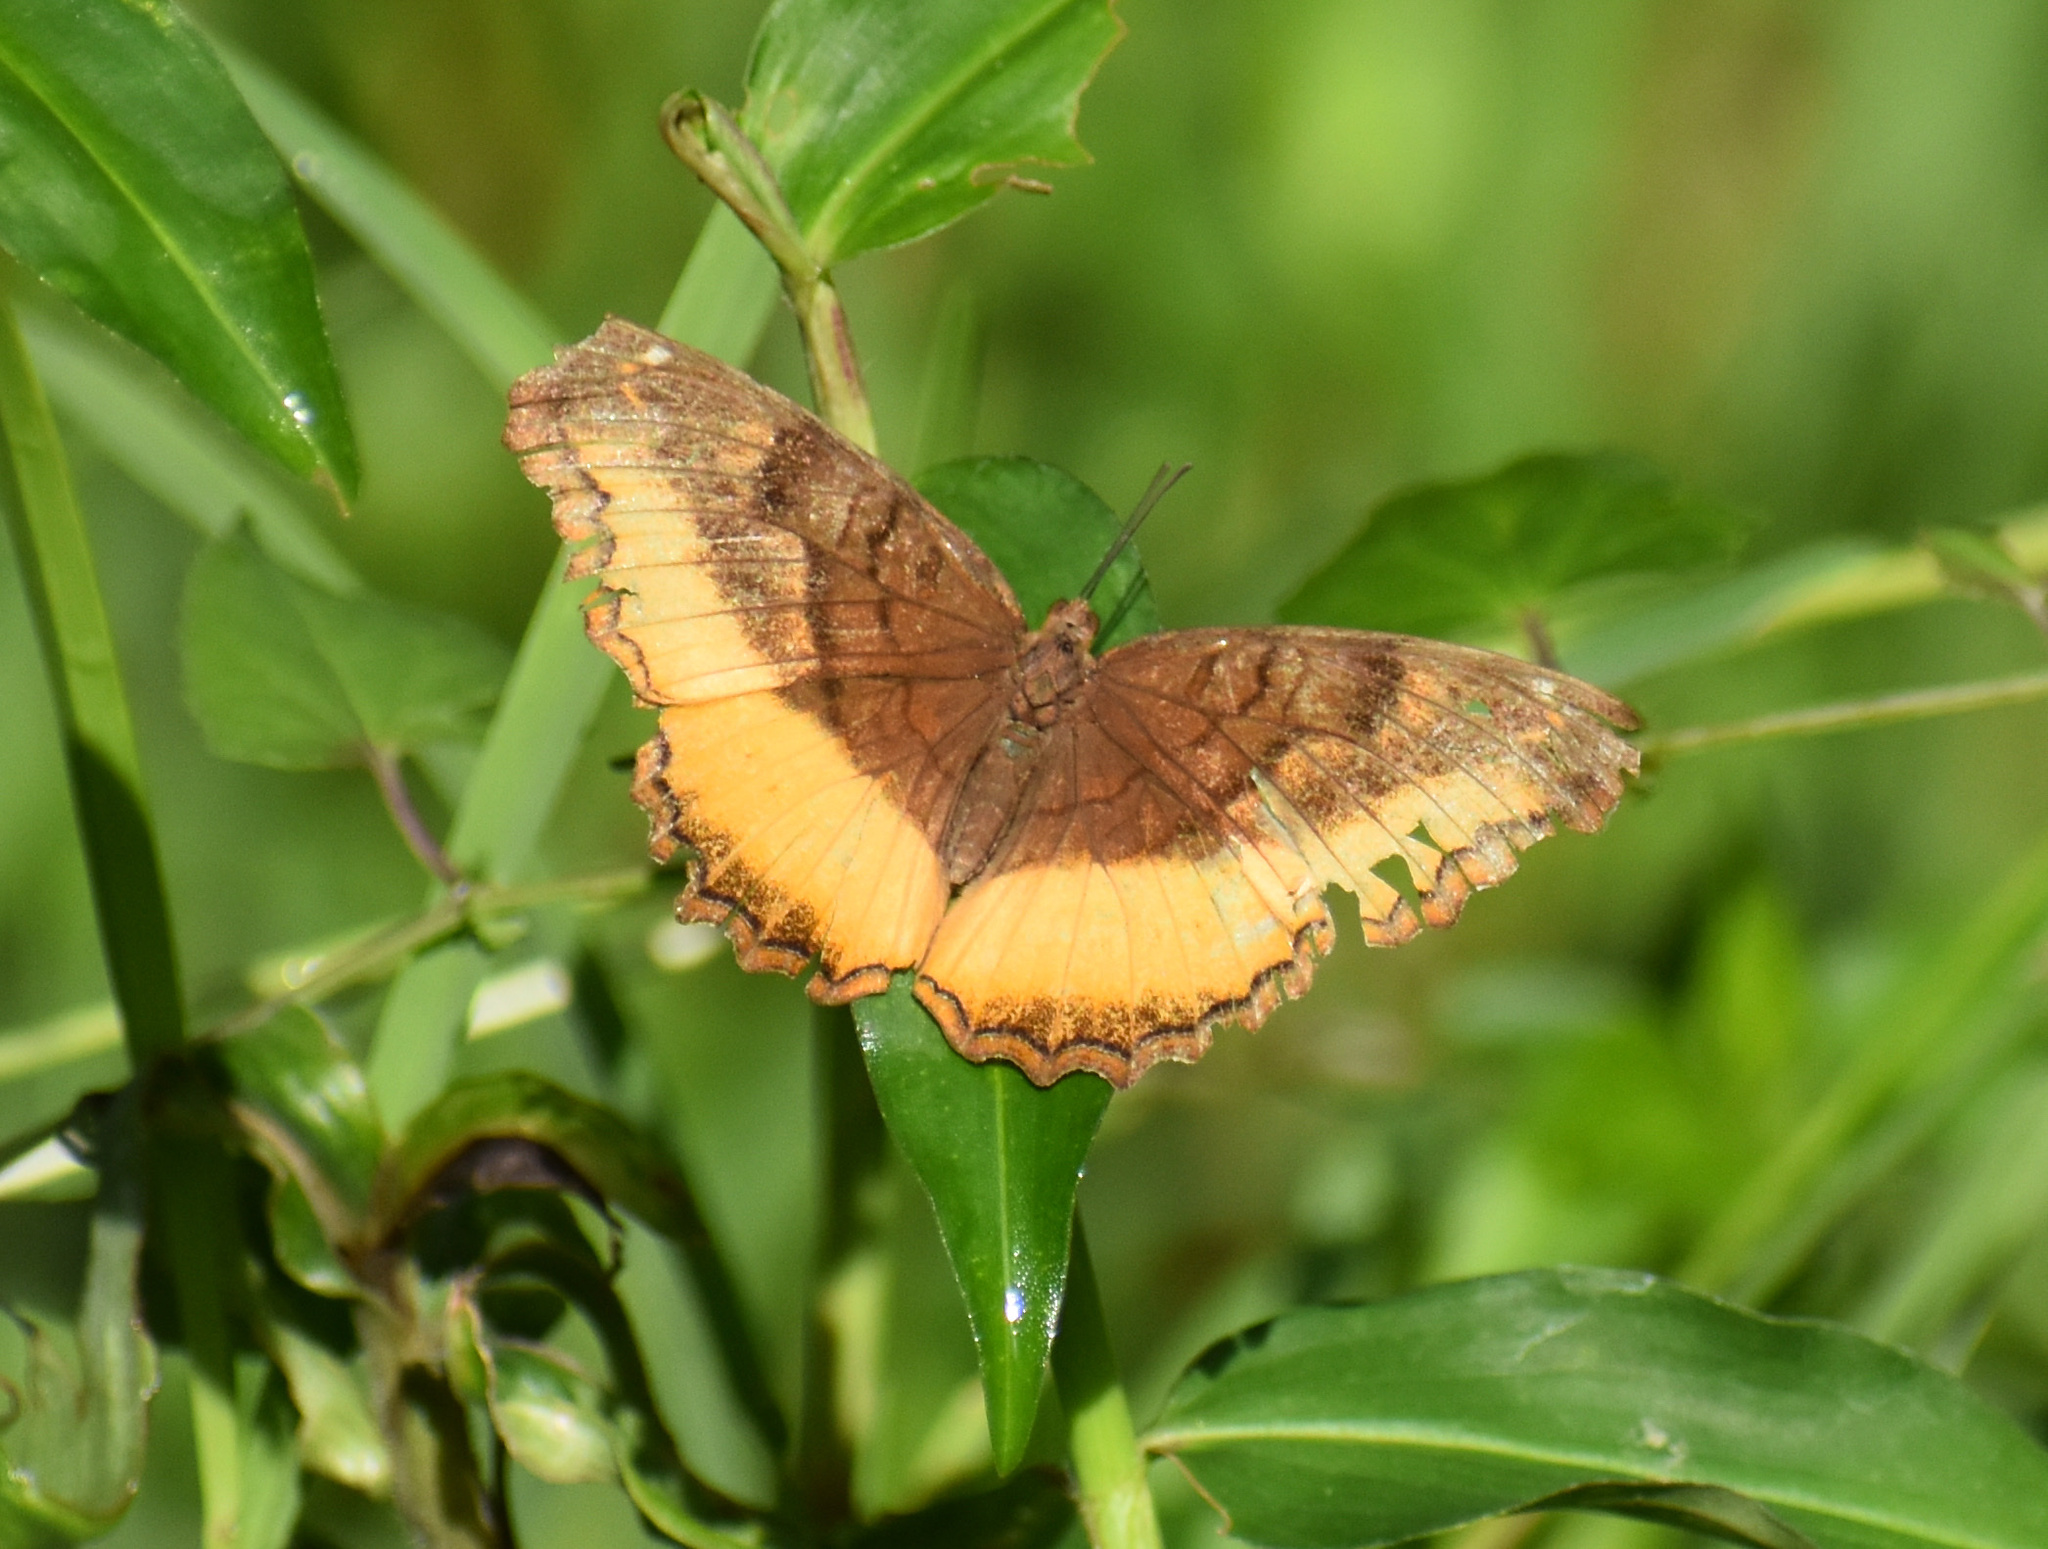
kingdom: Animalia
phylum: Arthropoda
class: Insecta
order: Lepidoptera
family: Nymphalidae
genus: Eurytela
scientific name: Eurytela dryope
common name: Golden piper
